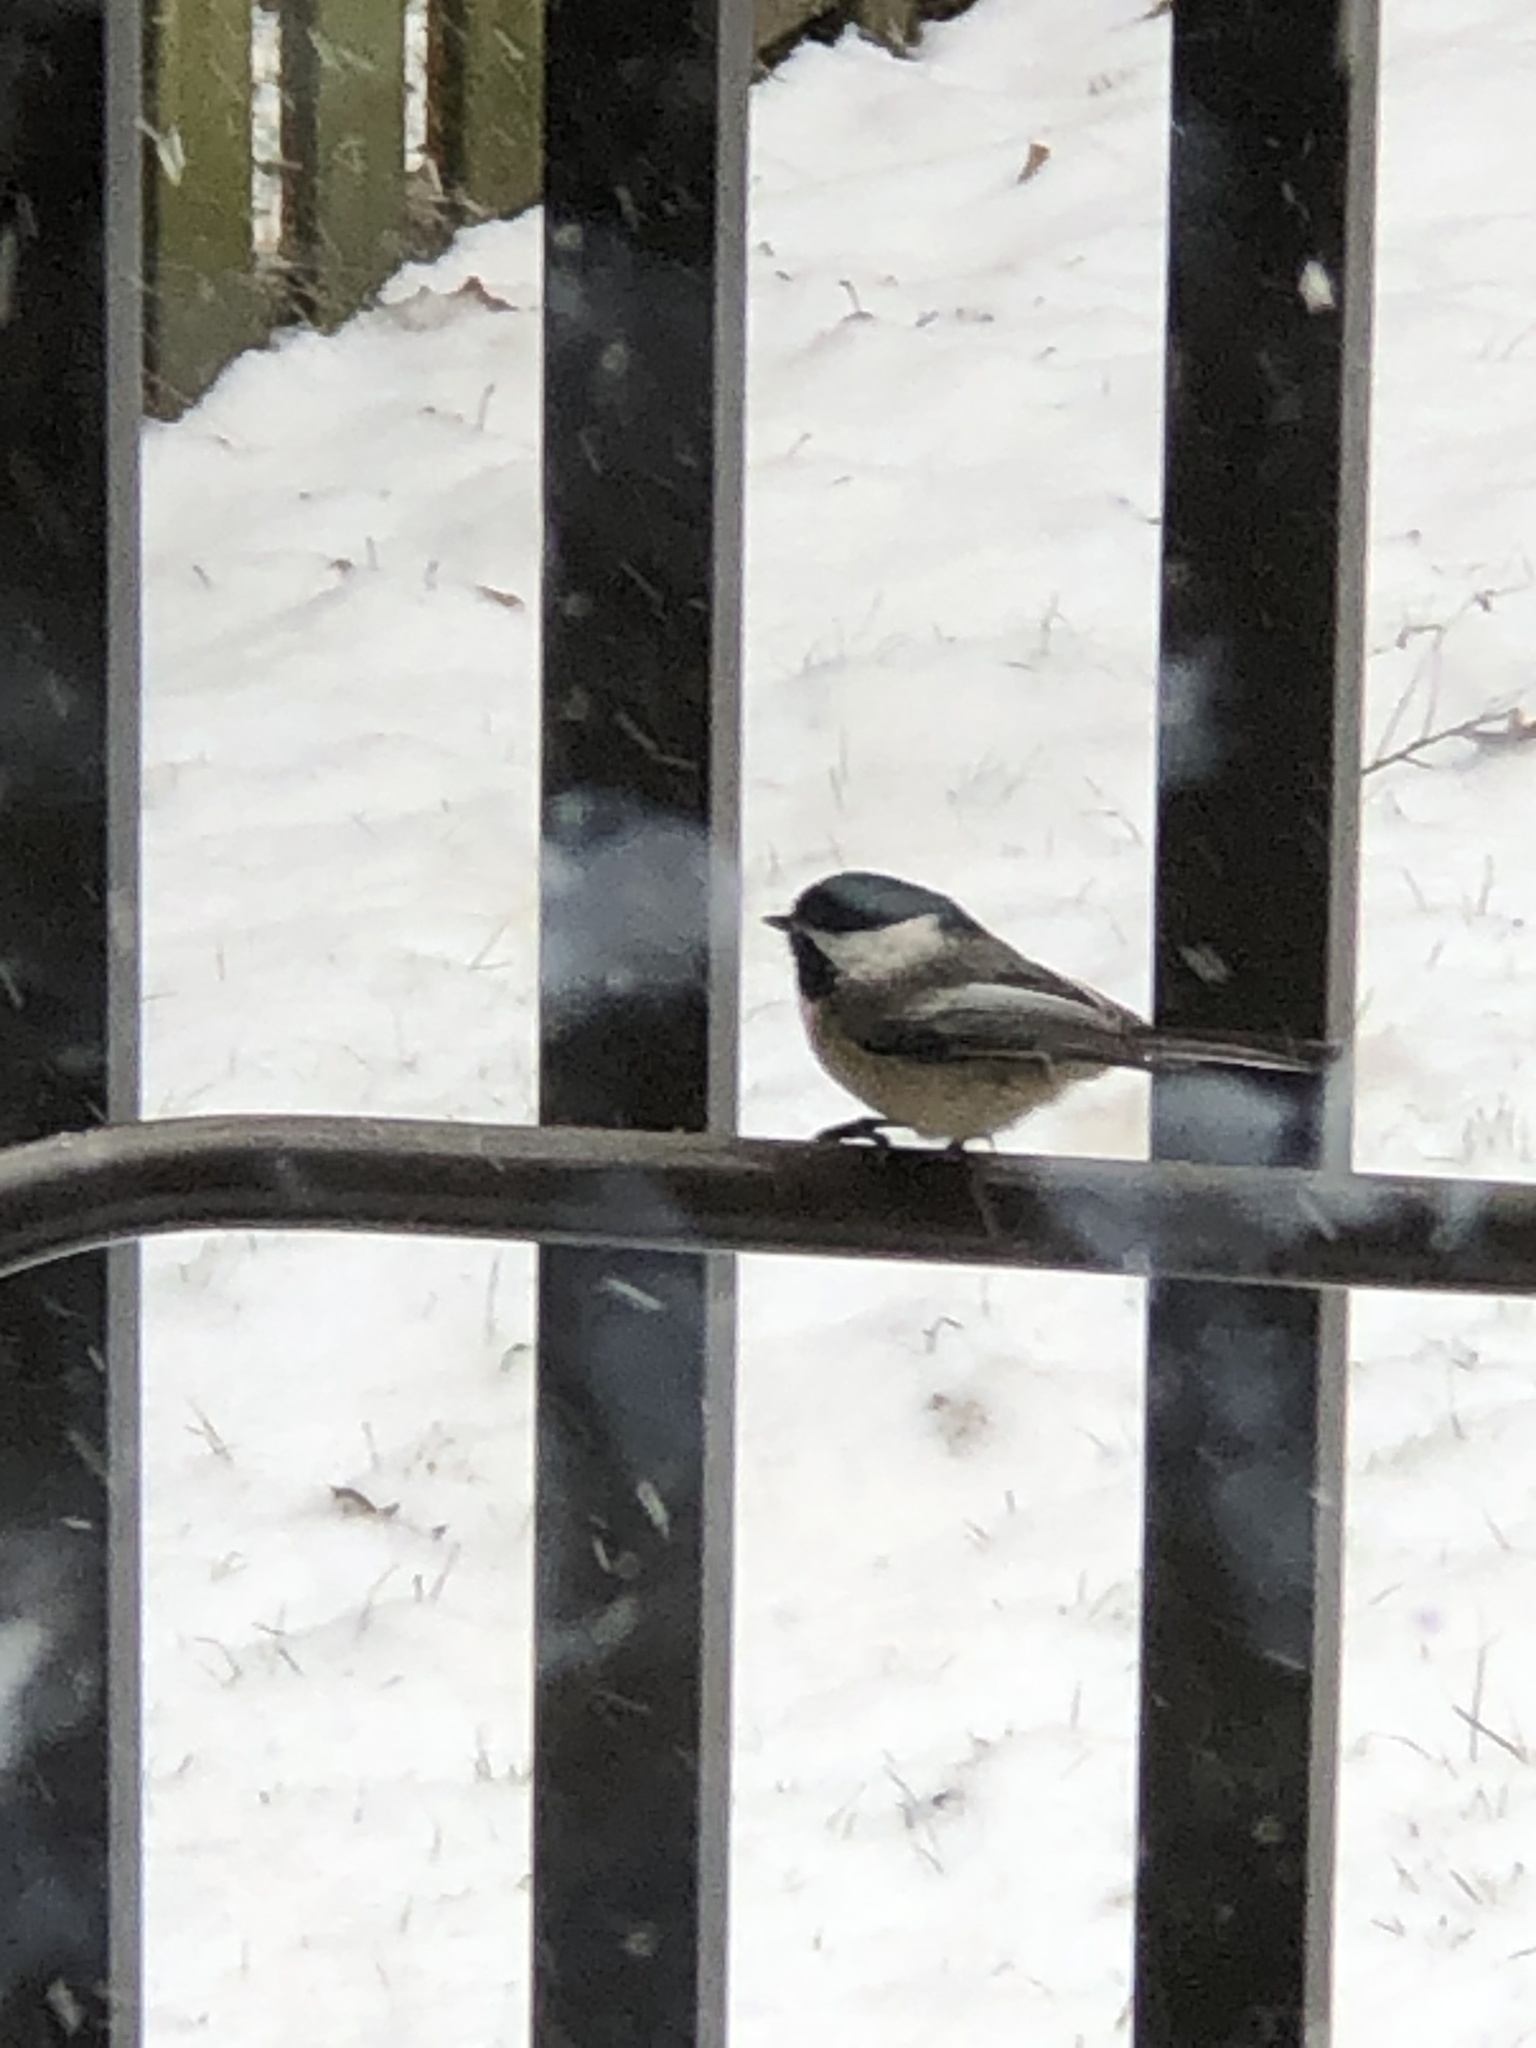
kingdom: Animalia
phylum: Chordata
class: Aves
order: Passeriformes
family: Paridae
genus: Poecile
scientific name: Poecile atricapillus
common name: Black-capped chickadee
